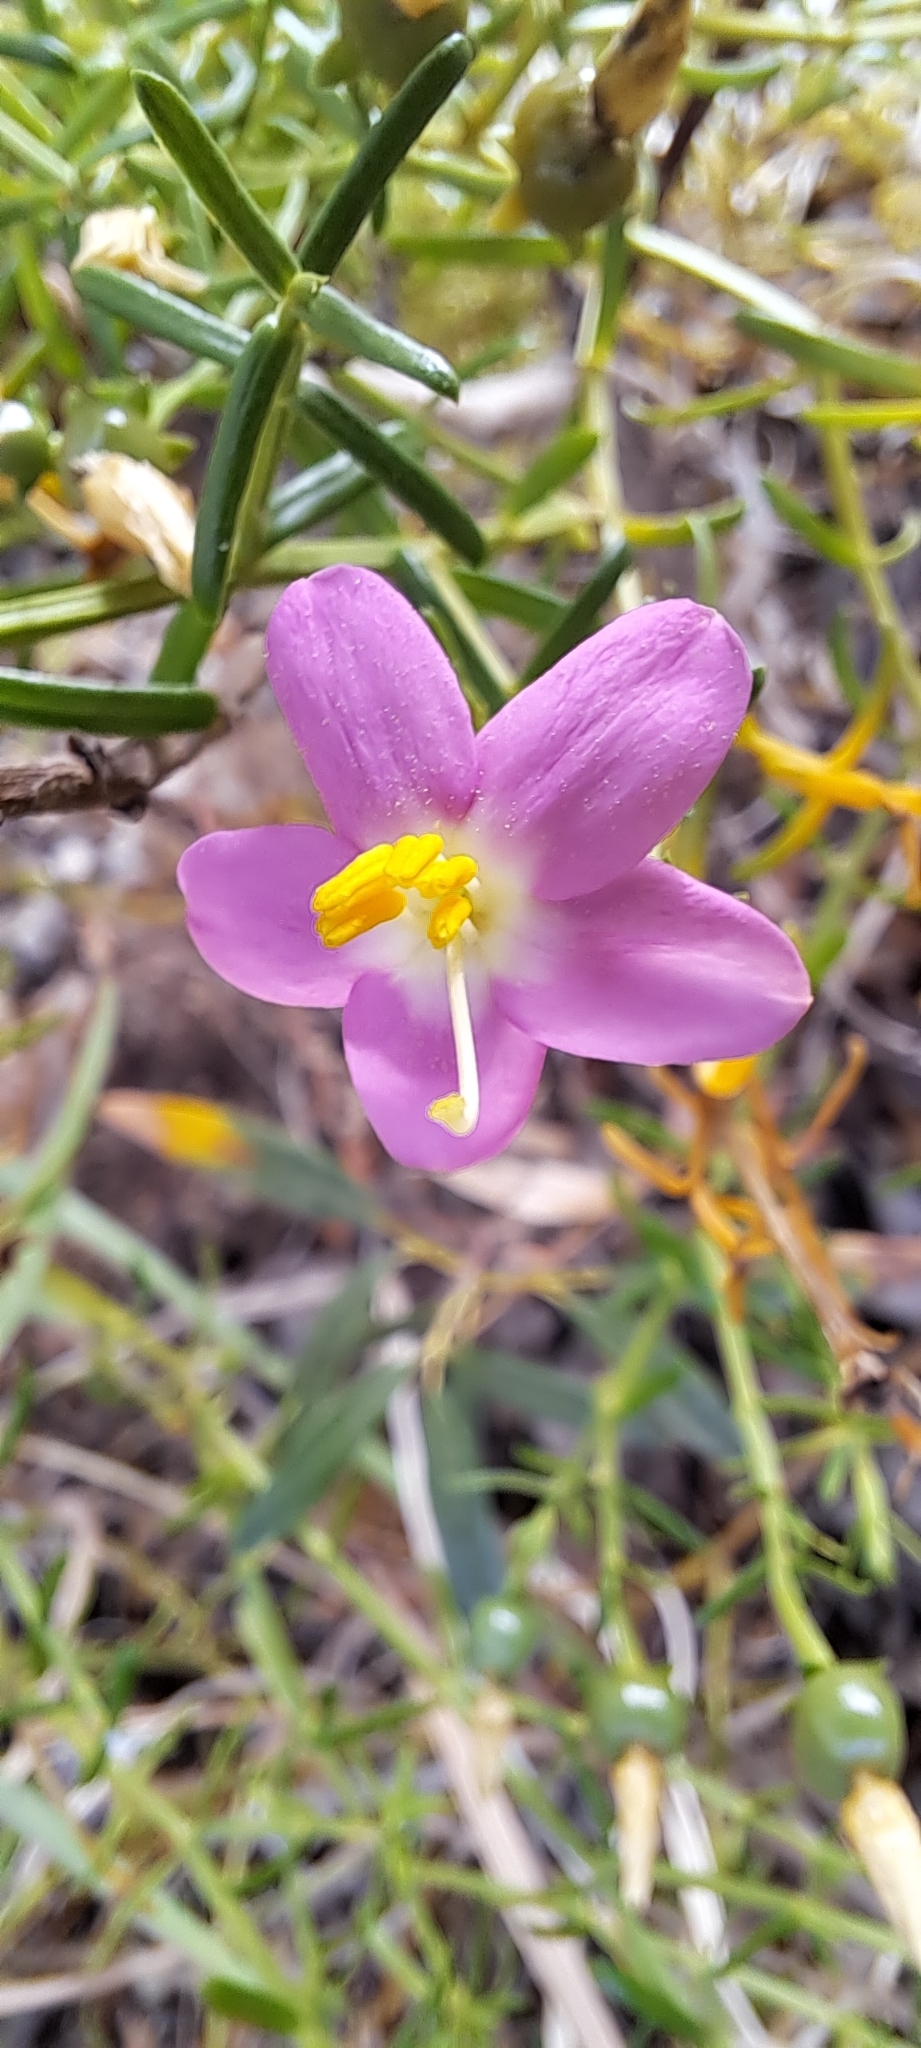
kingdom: Plantae
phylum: Tracheophyta
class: Magnoliopsida
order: Gentianales
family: Gentianaceae
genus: Chironia
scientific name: Chironia baccifera
